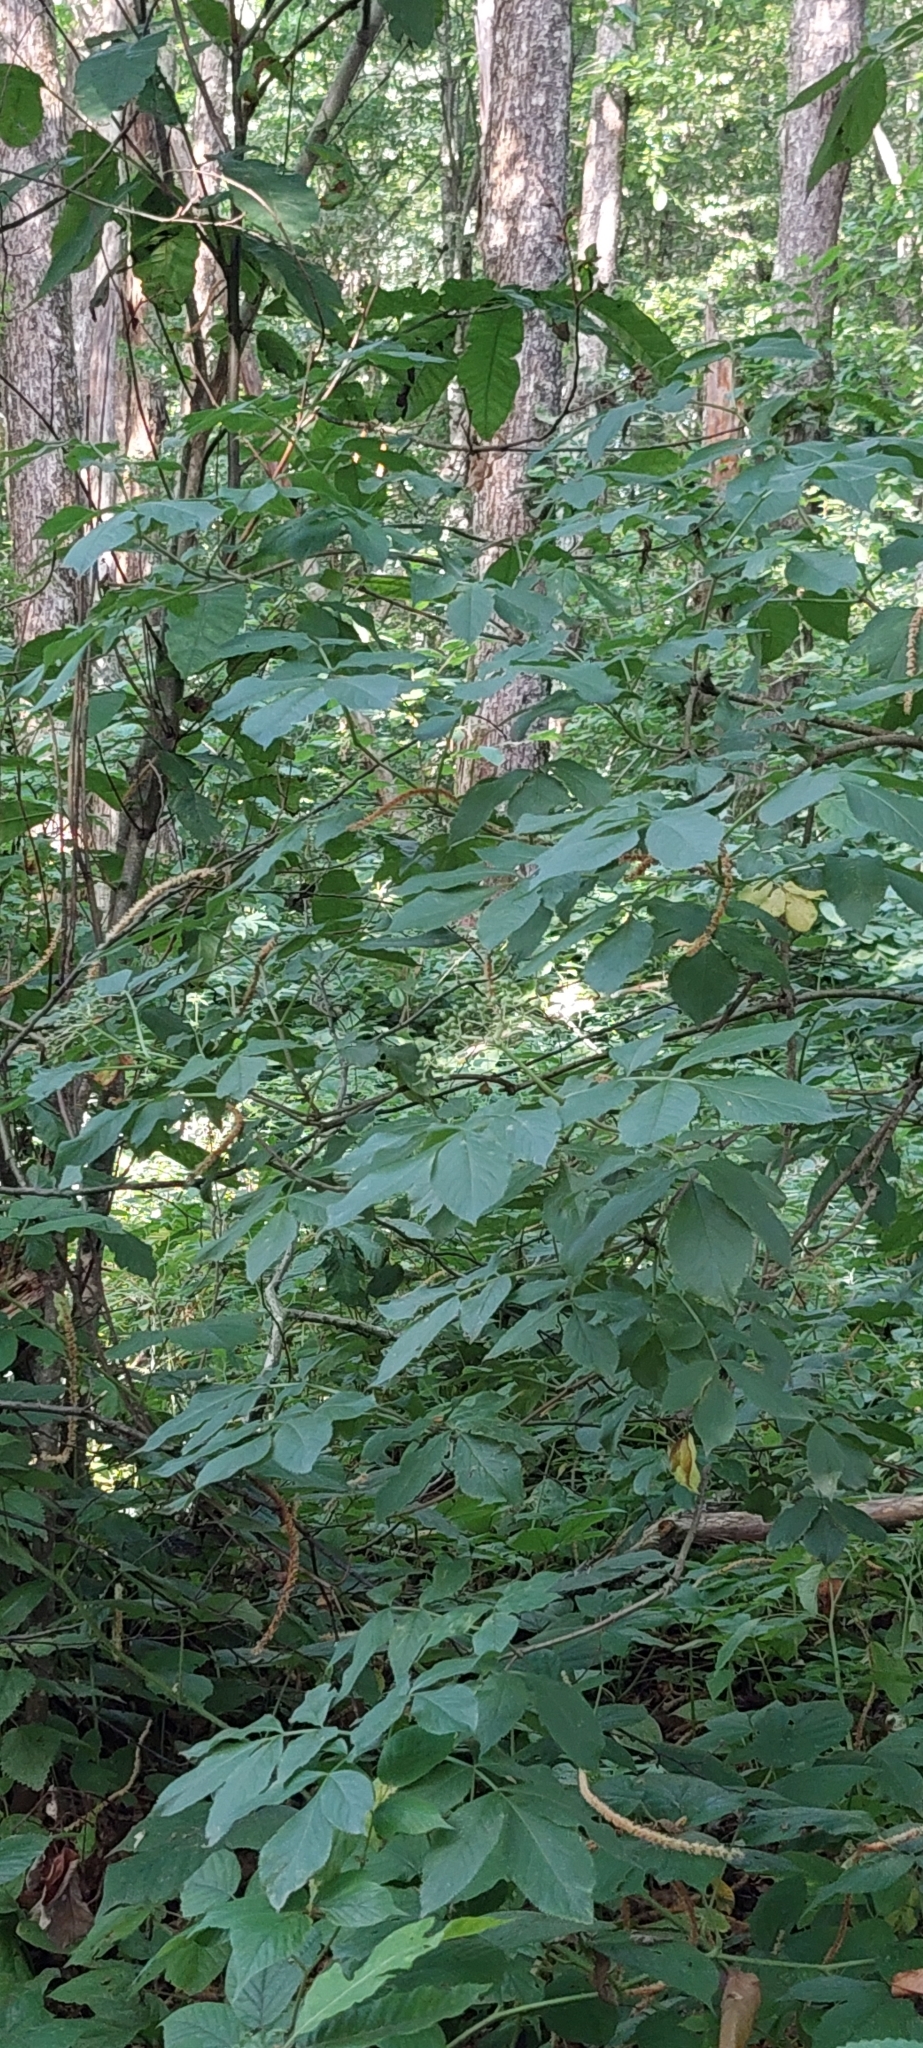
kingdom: Plantae
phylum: Tracheophyta
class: Magnoliopsida
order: Dipsacales
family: Viburnaceae
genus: Sambucus
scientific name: Sambucus nigra
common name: Elder
